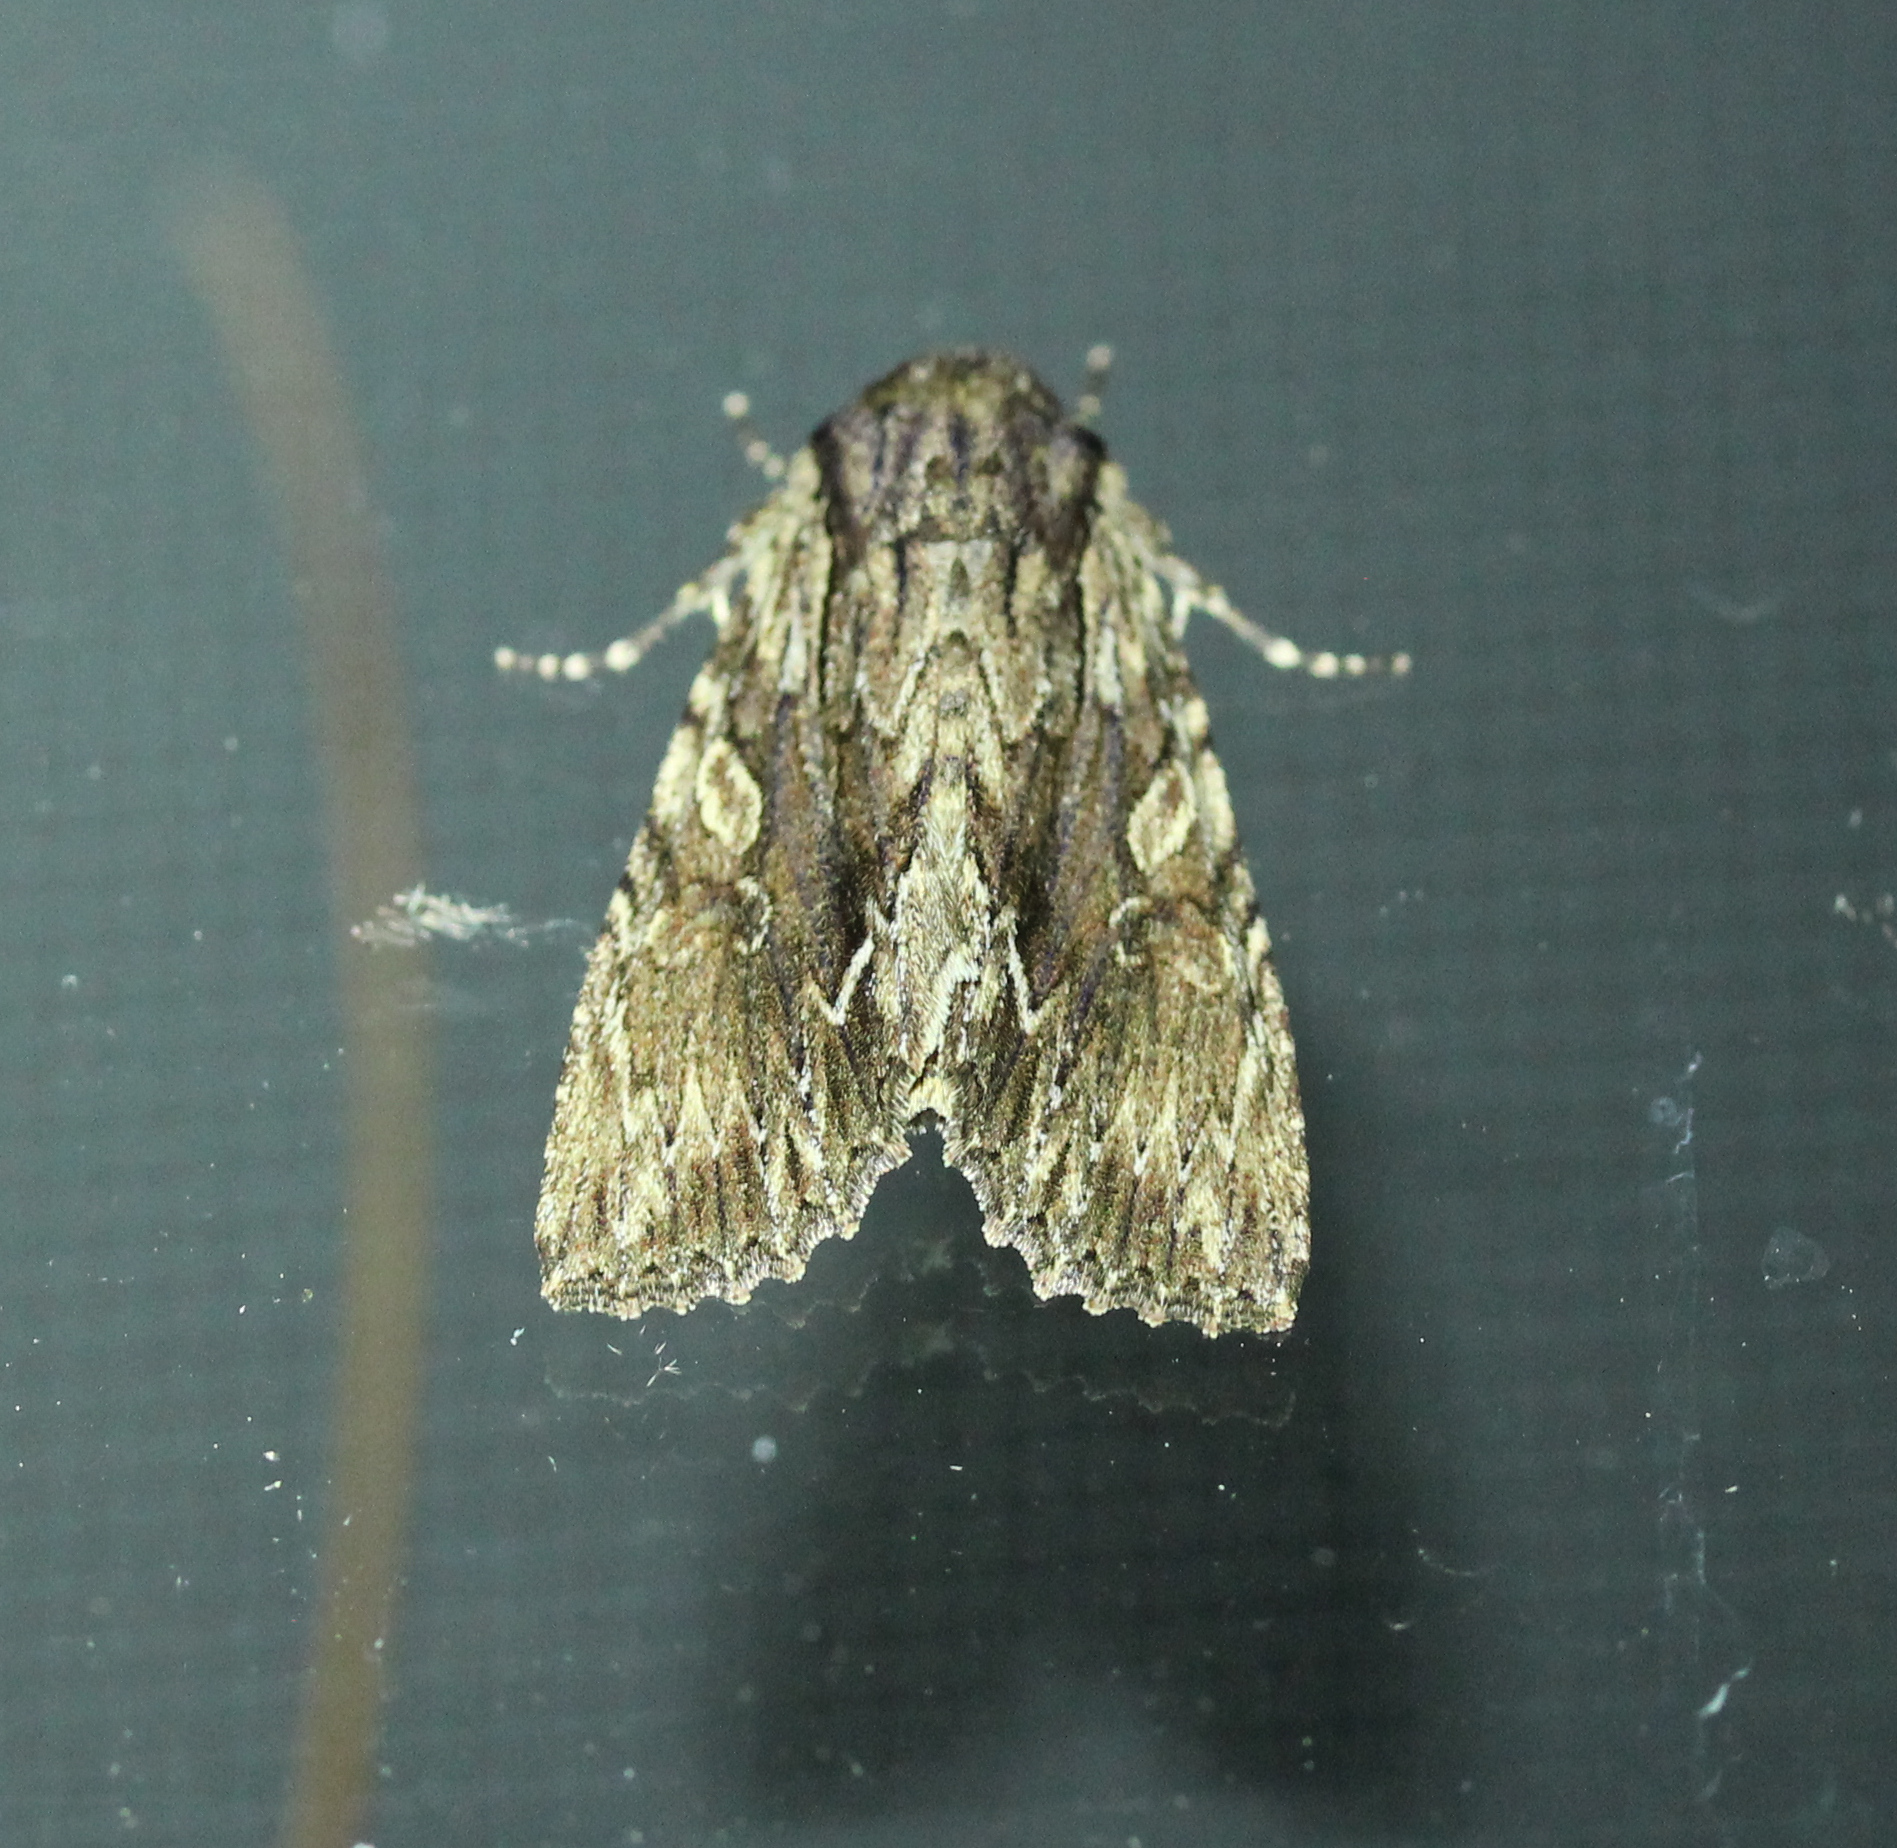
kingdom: Animalia
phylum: Arthropoda
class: Insecta
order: Lepidoptera
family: Noctuidae
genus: Achatia
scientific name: Achatia confusa
